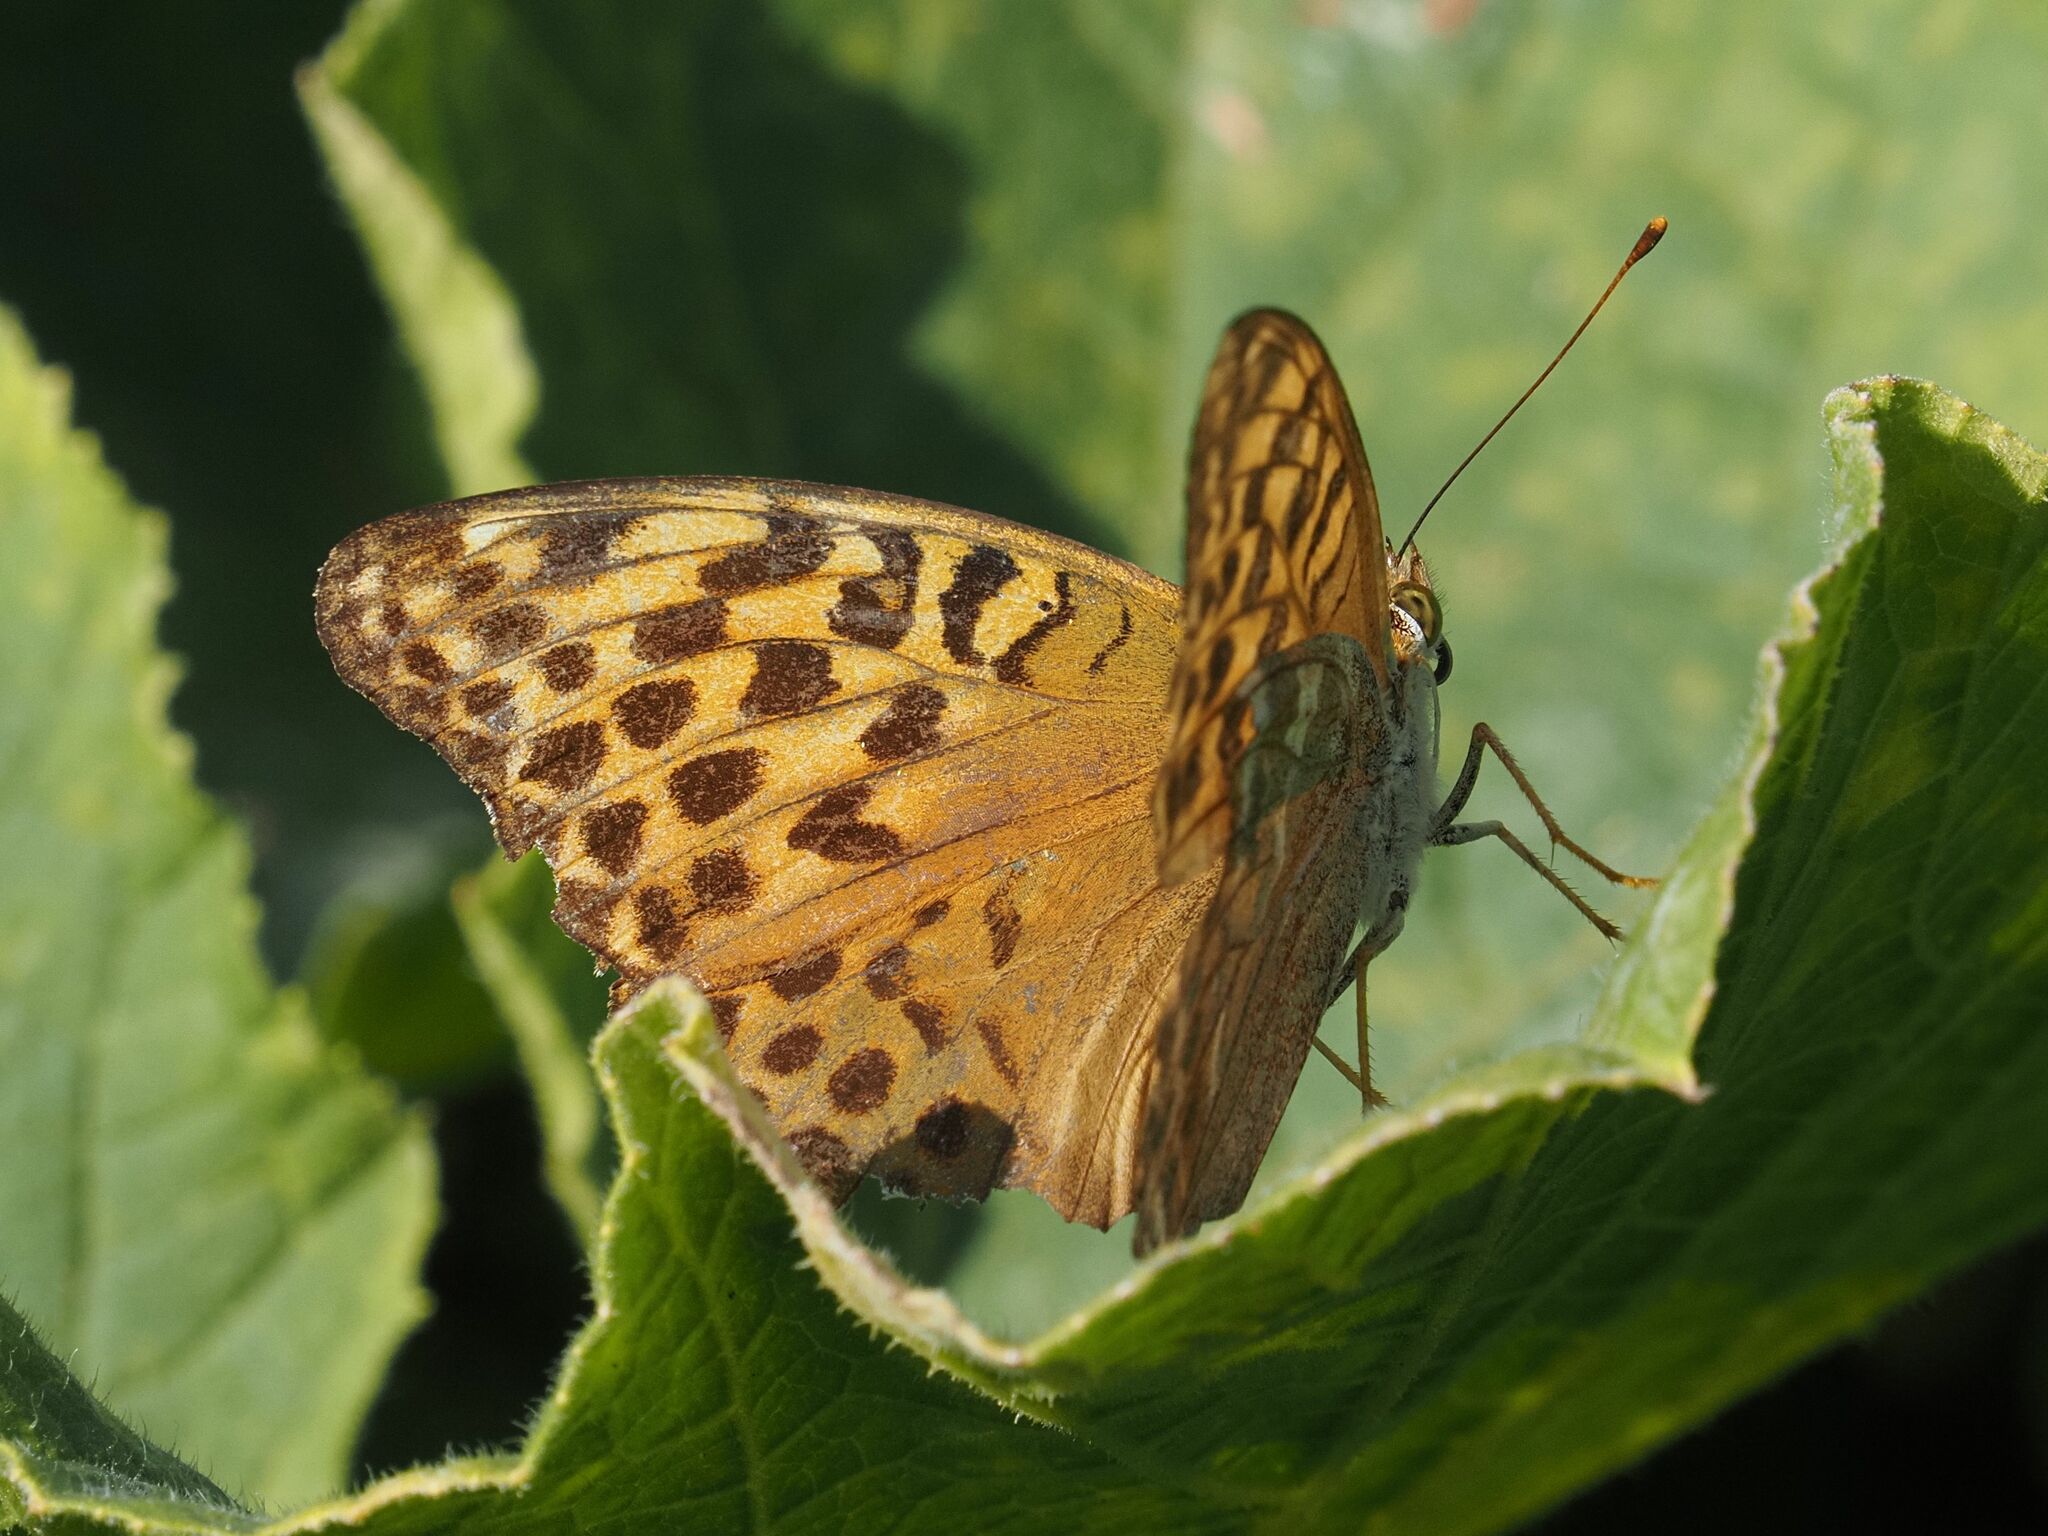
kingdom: Animalia
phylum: Arthropoda
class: Insecta
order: Lepidoptera
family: Nymphalidae
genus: Argynnis
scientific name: Argynnis paphia
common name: Silver-washed fritillary
